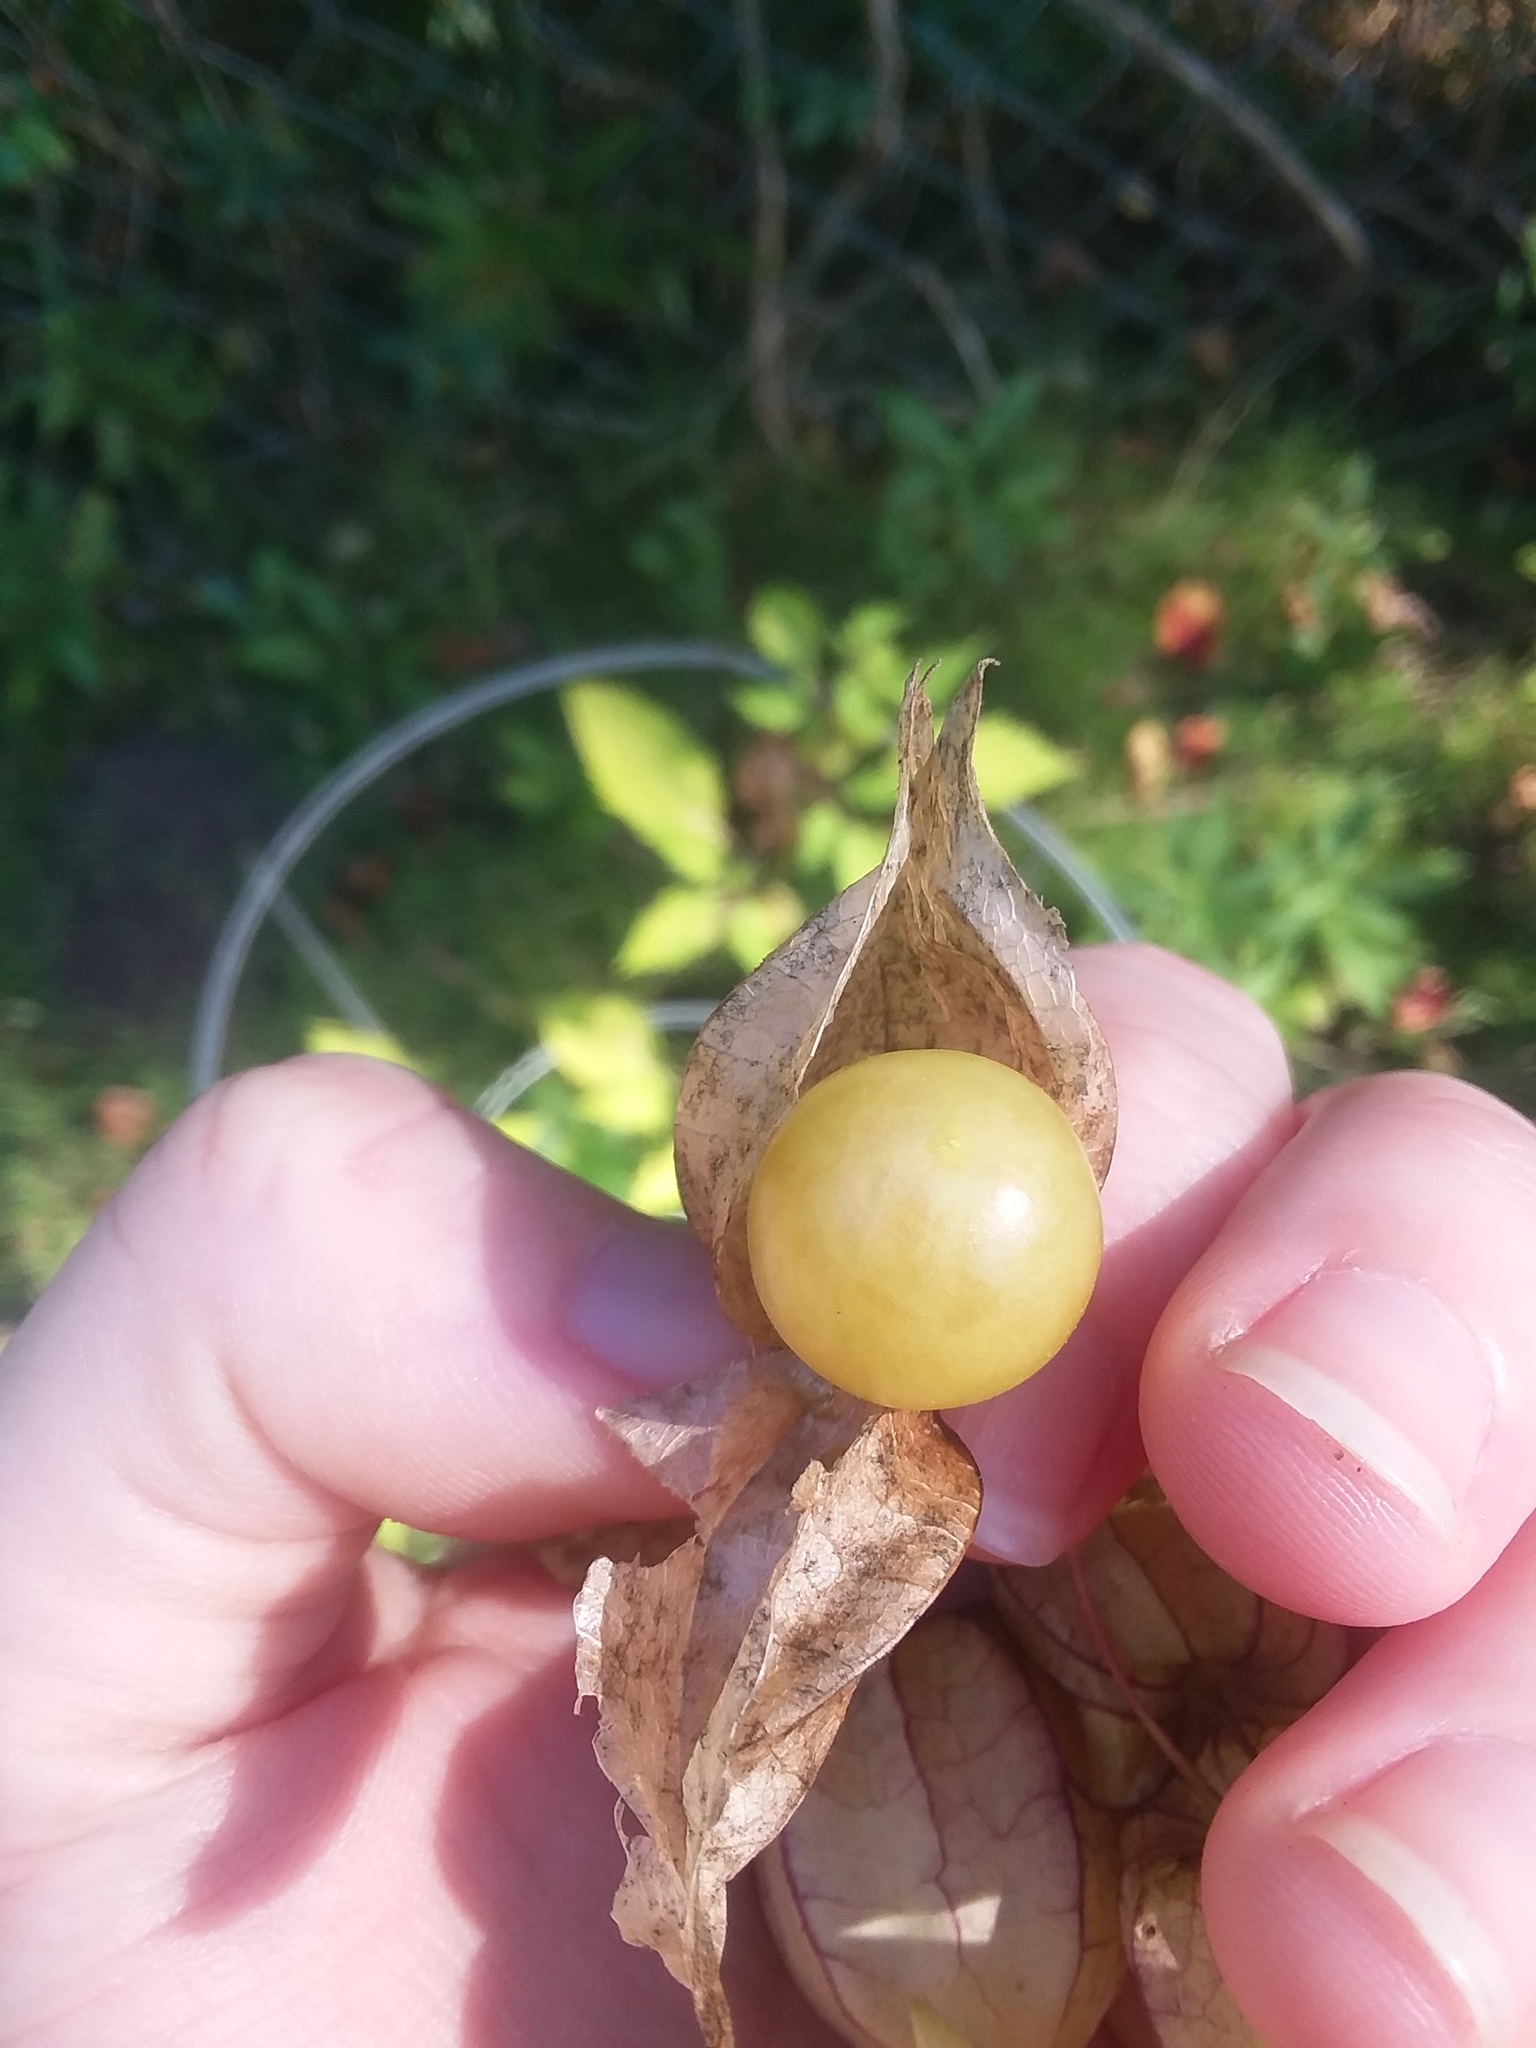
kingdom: Plantae
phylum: Tracheophyta
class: Magnoliopsida
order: Solanales
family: Solanaceae
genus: Physalis
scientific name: Physalis angulata
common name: Angular winter-cherry
